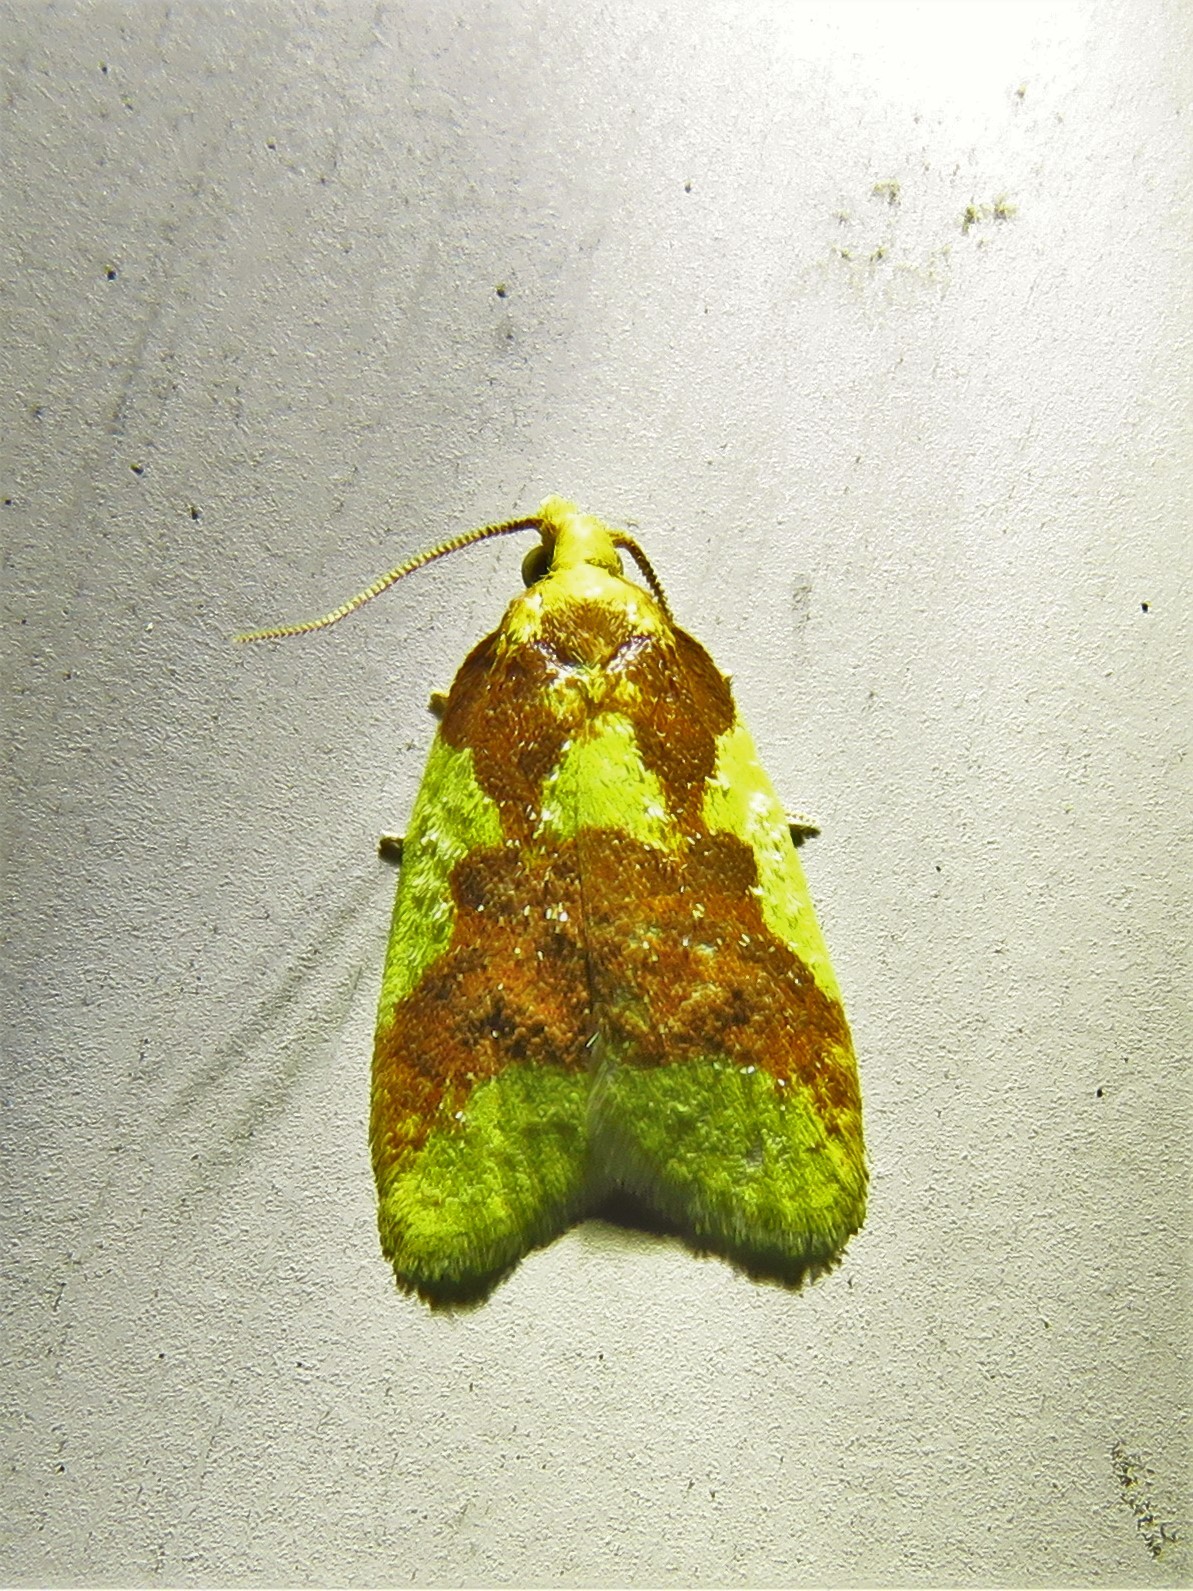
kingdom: Animalia
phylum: Arthropoda
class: Insecta
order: Lepidoptera
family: Tortricidae
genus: Sparganothis
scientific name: Sparganothis pulcherrimana
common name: Beautiful sparganothis
